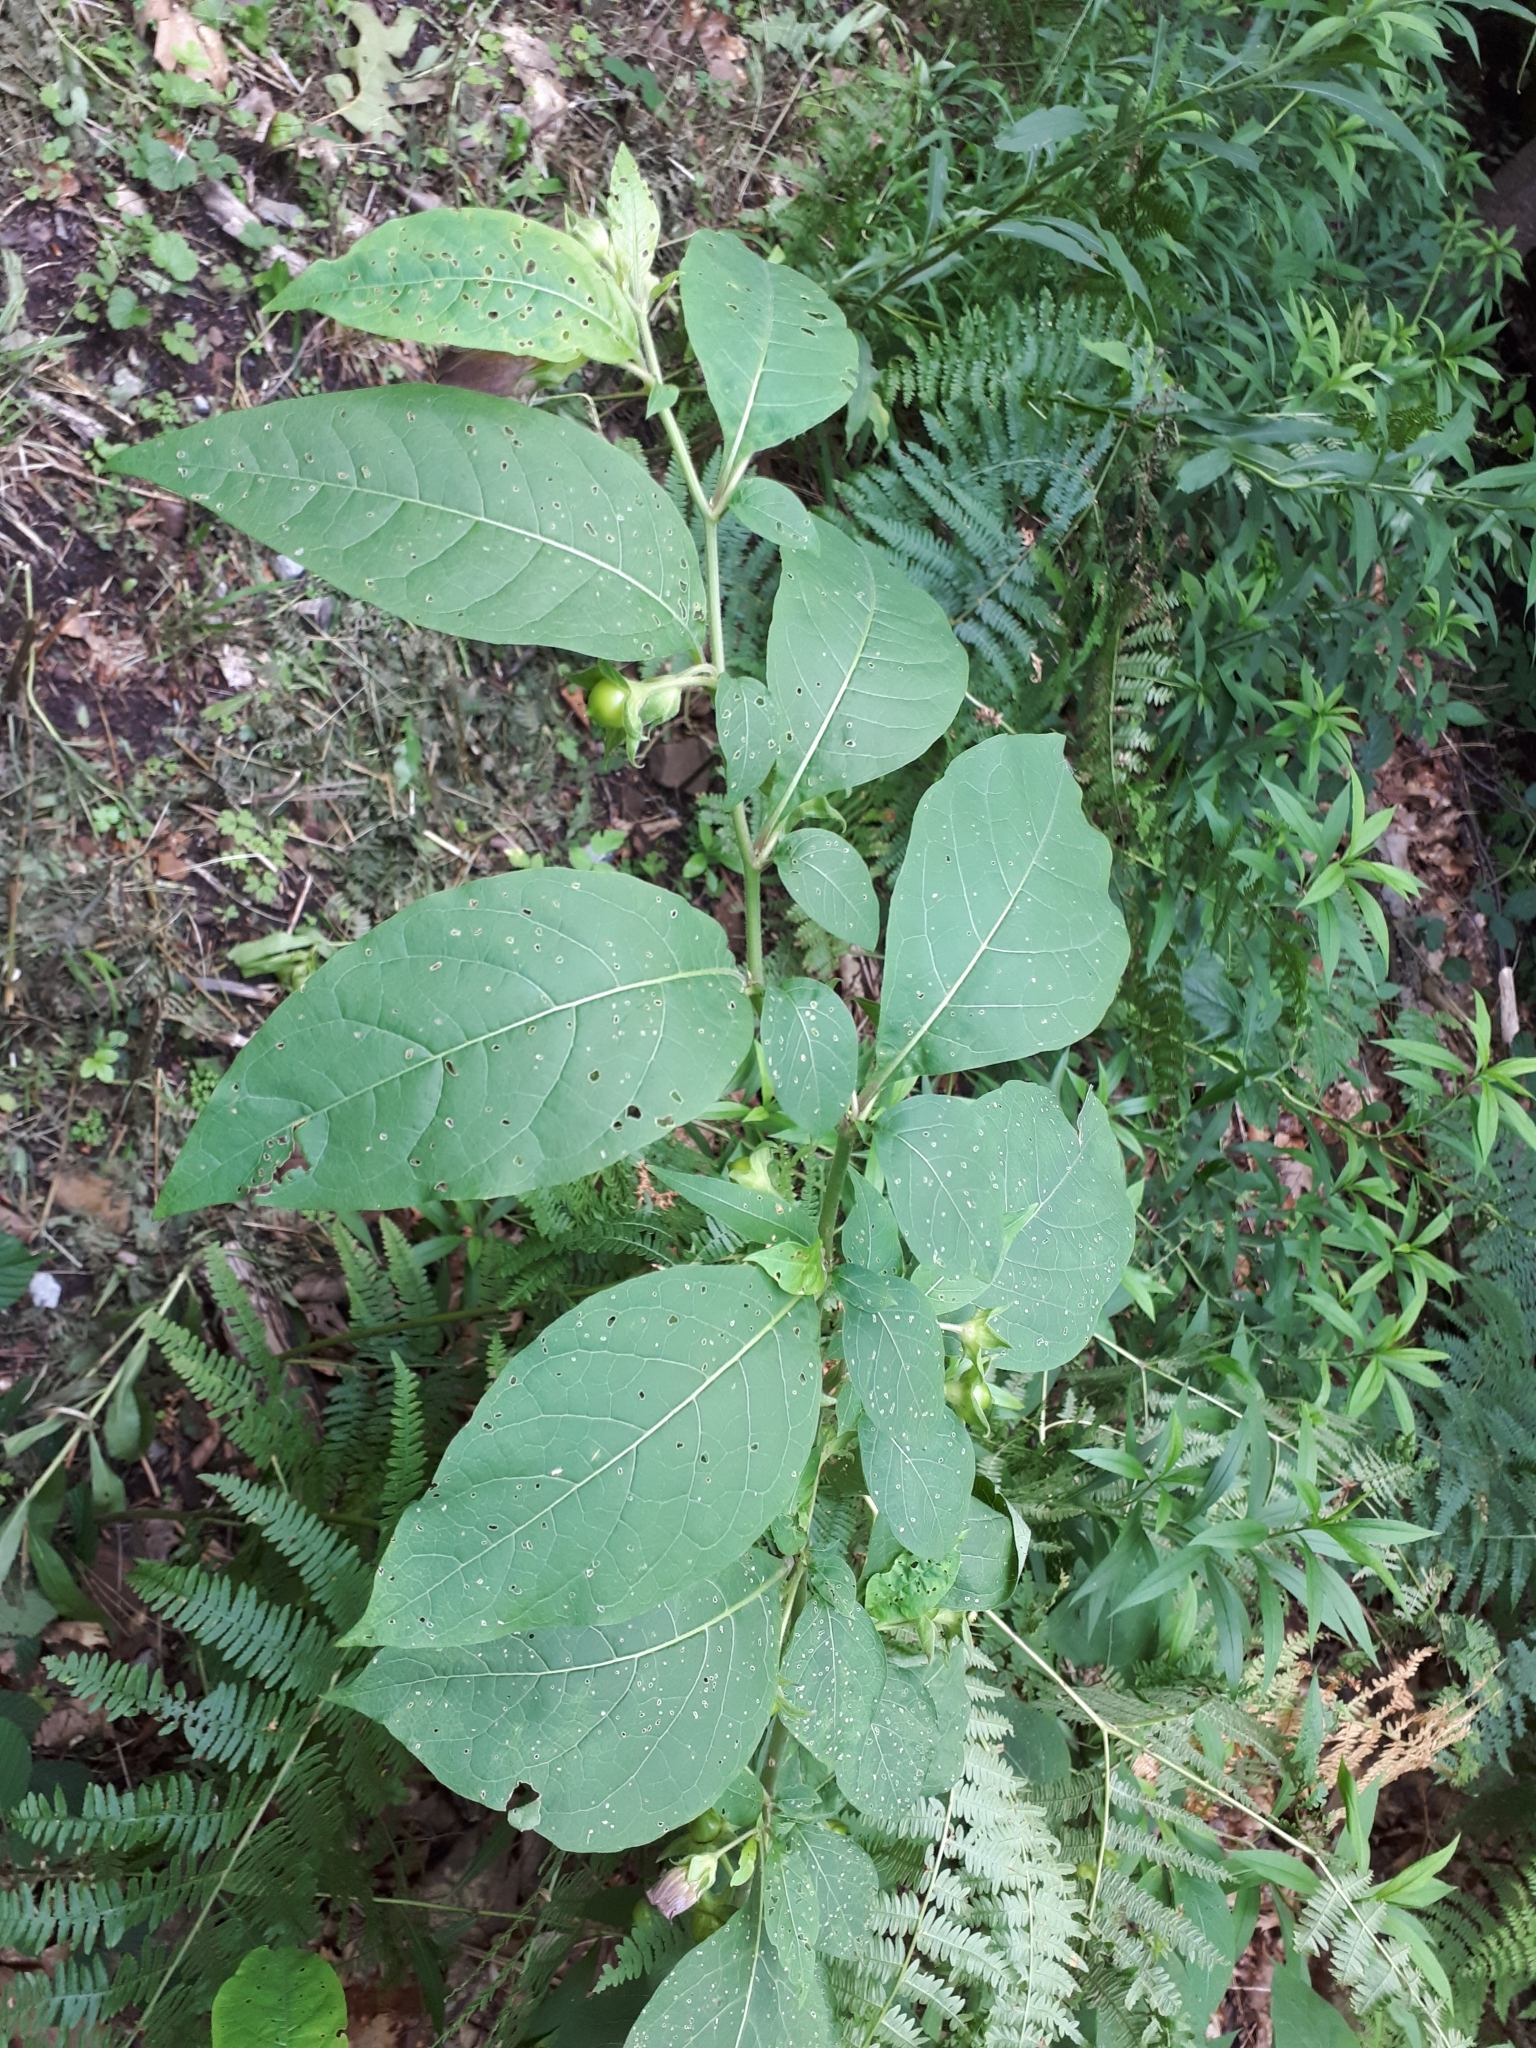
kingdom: Plantae
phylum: Tracheophyta
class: Magnoliopsida
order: Solanales
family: Solanaceae
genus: Atropa
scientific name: Atropa belladonna
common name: Deadly nightshade
